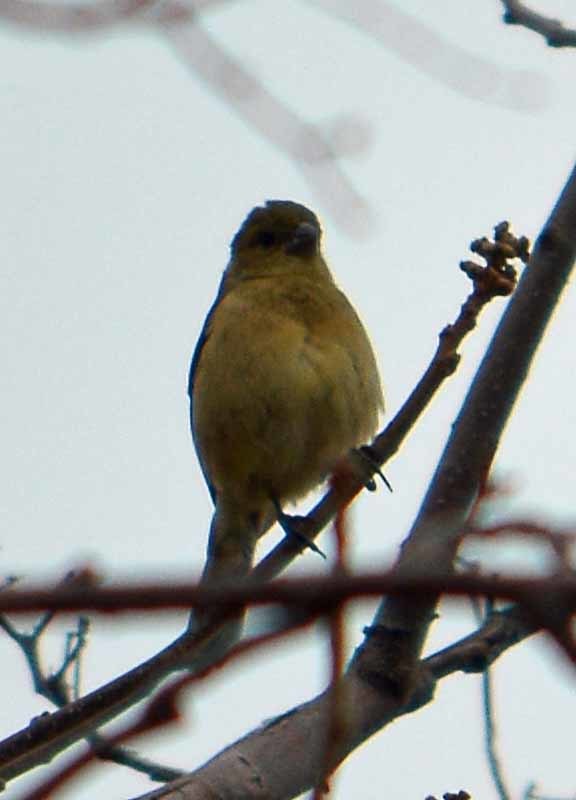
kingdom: Animalia
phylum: Chordata
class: Aves
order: Passeriformes
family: Thraupidae
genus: Sporophila
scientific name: Sporophila torqueola
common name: White-collared seedeater
